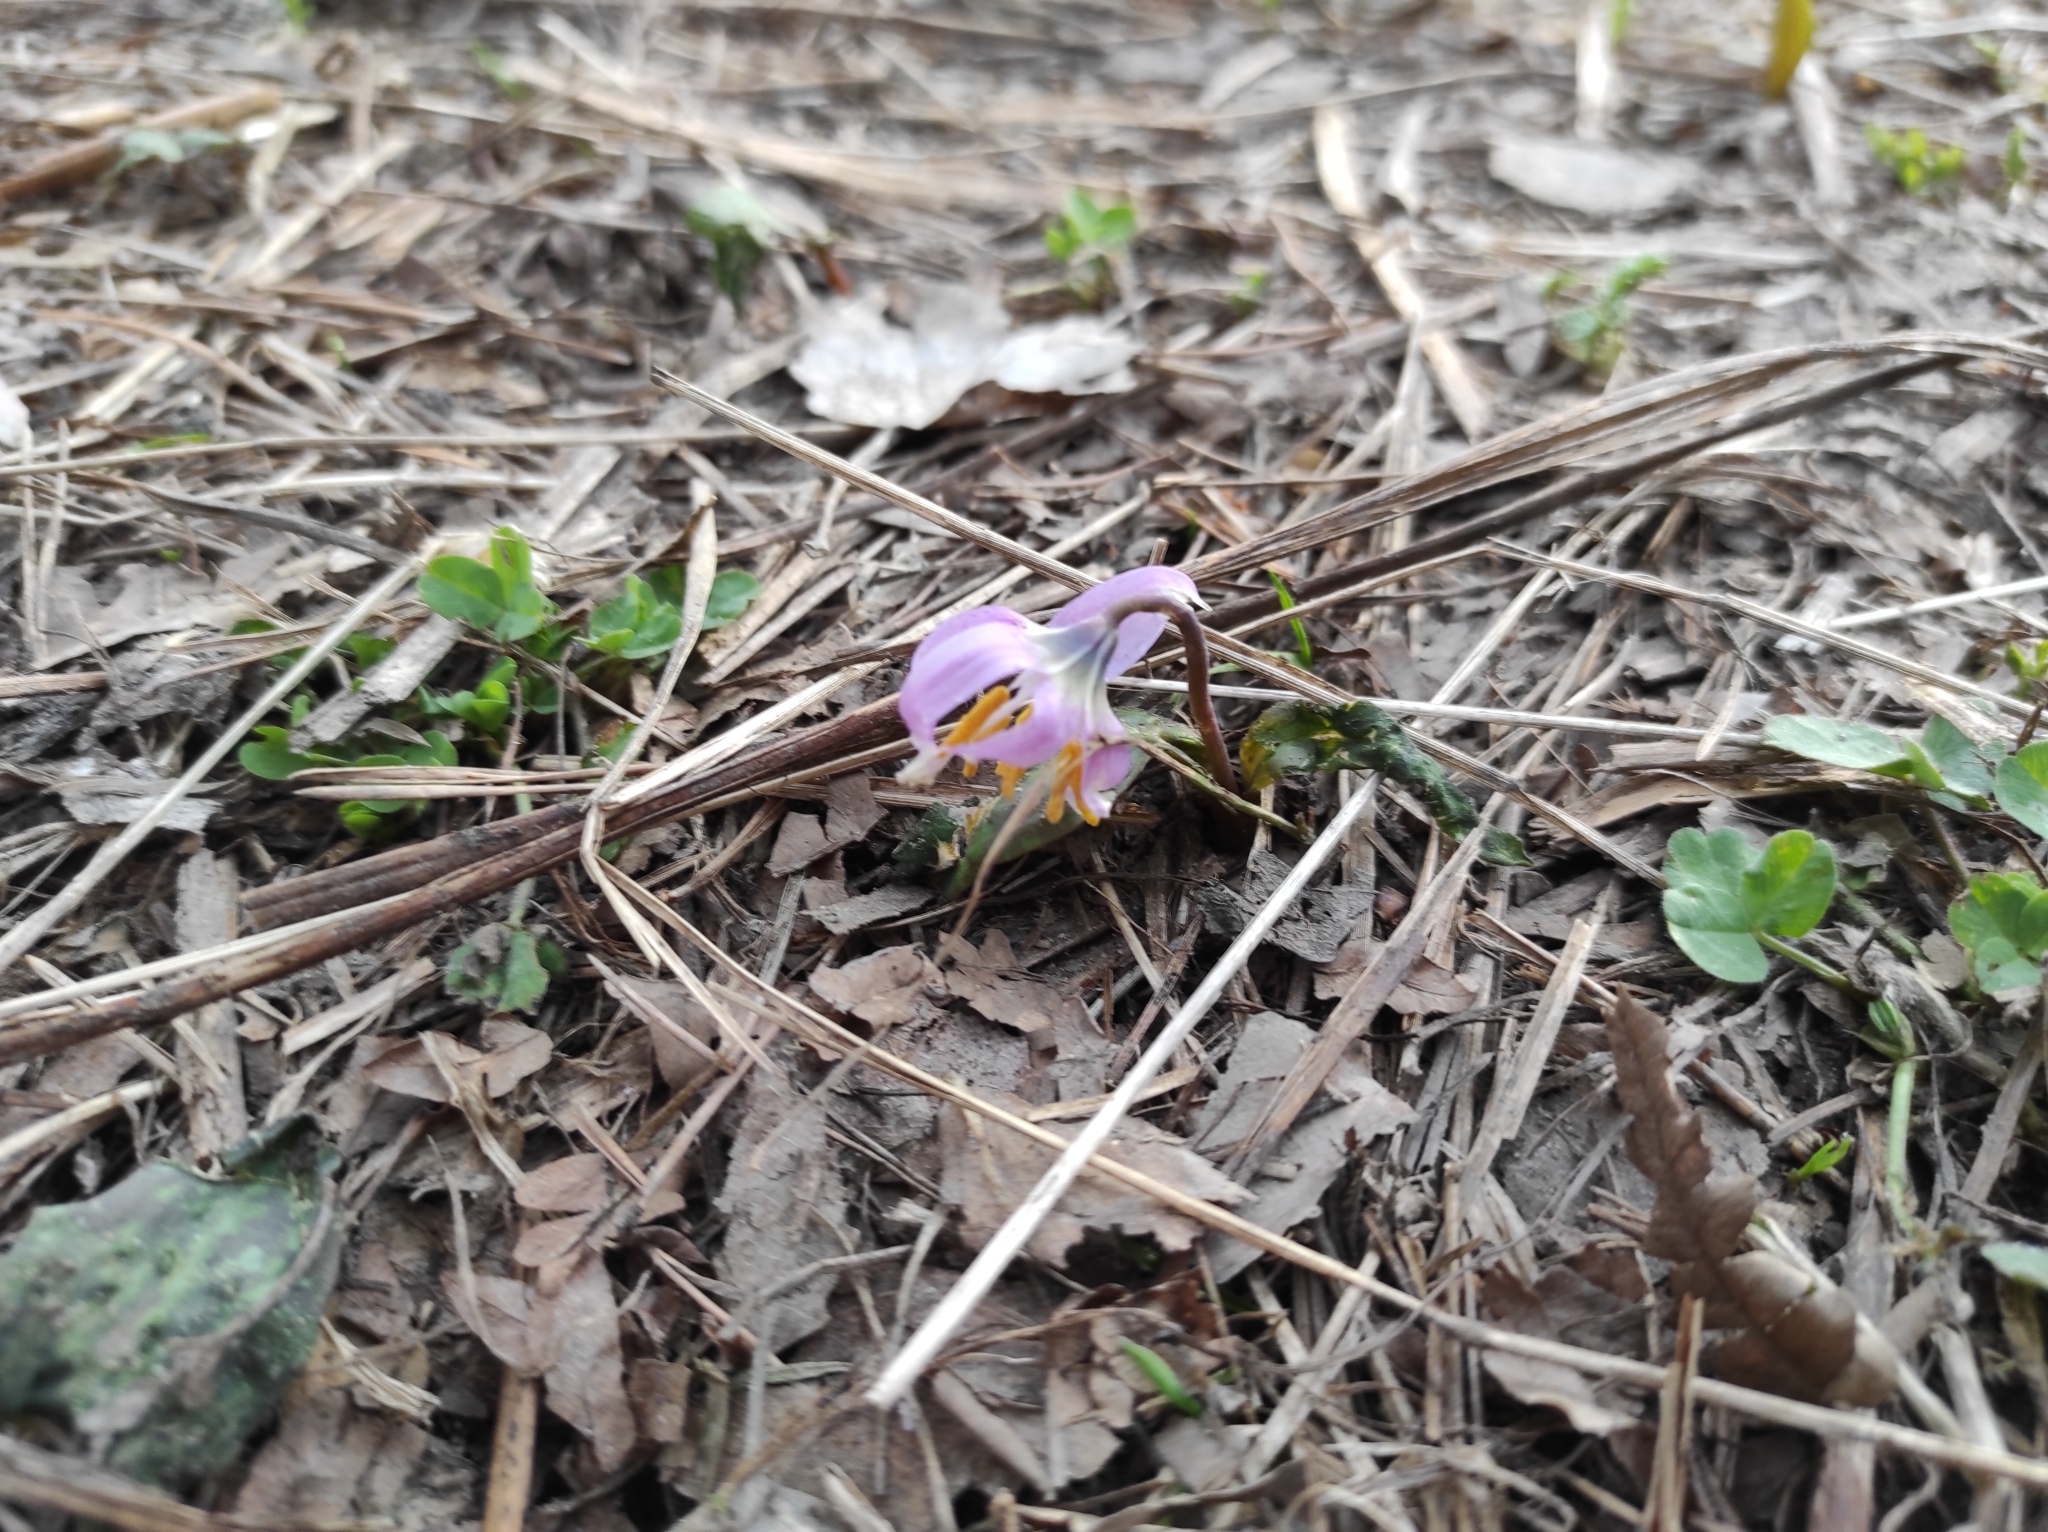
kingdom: Plantae
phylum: Tracheophyta
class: Liliopsida
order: Liliales
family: Liliaceae
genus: Erythronium
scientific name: Erythronium sibiricum
